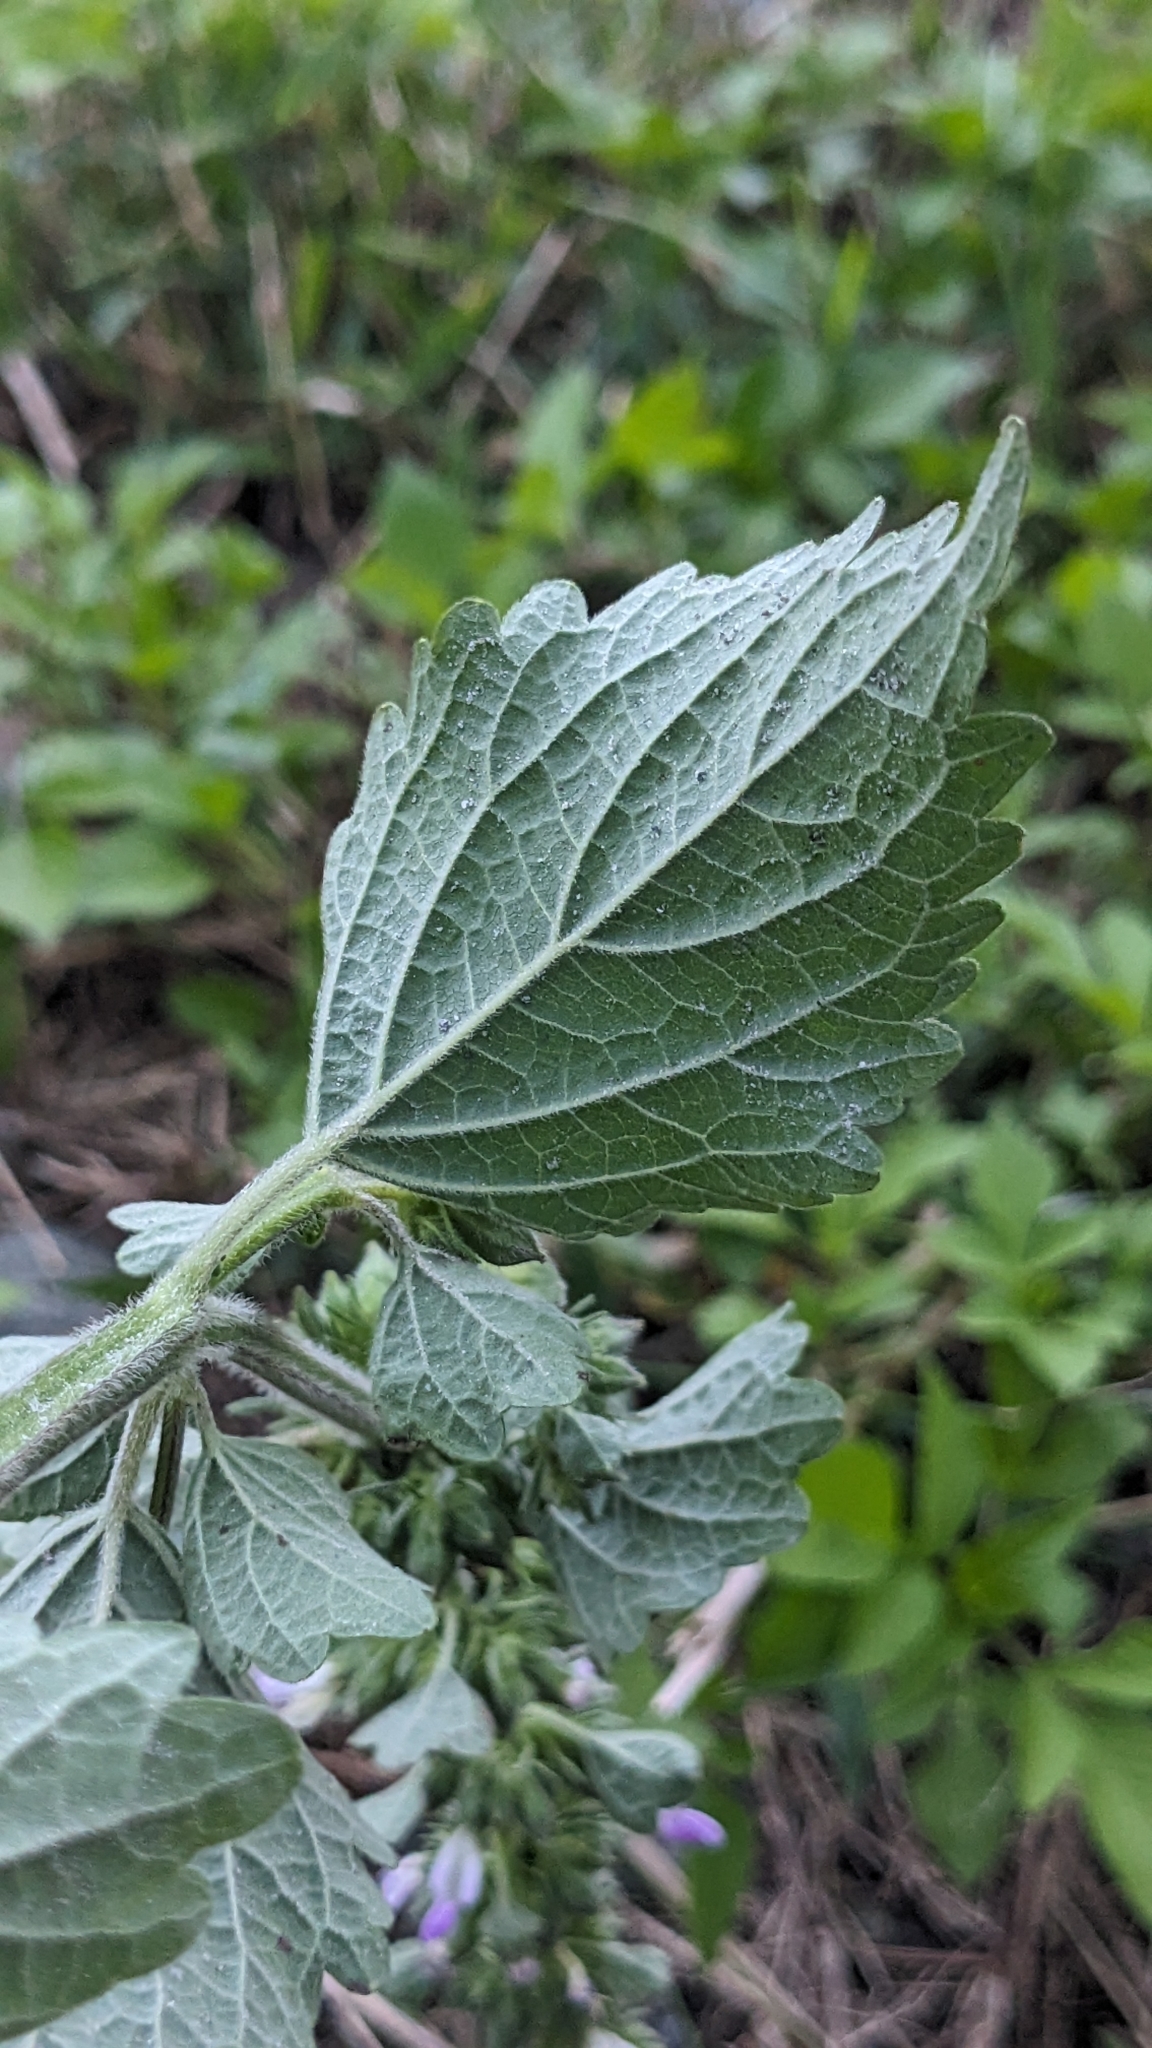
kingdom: Plantae
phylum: Tracheophyta
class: Magnoliopsida
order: Lamiales
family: Lamiaceae
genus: Anisomeles
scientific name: Anisomeles indica
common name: Catmint
